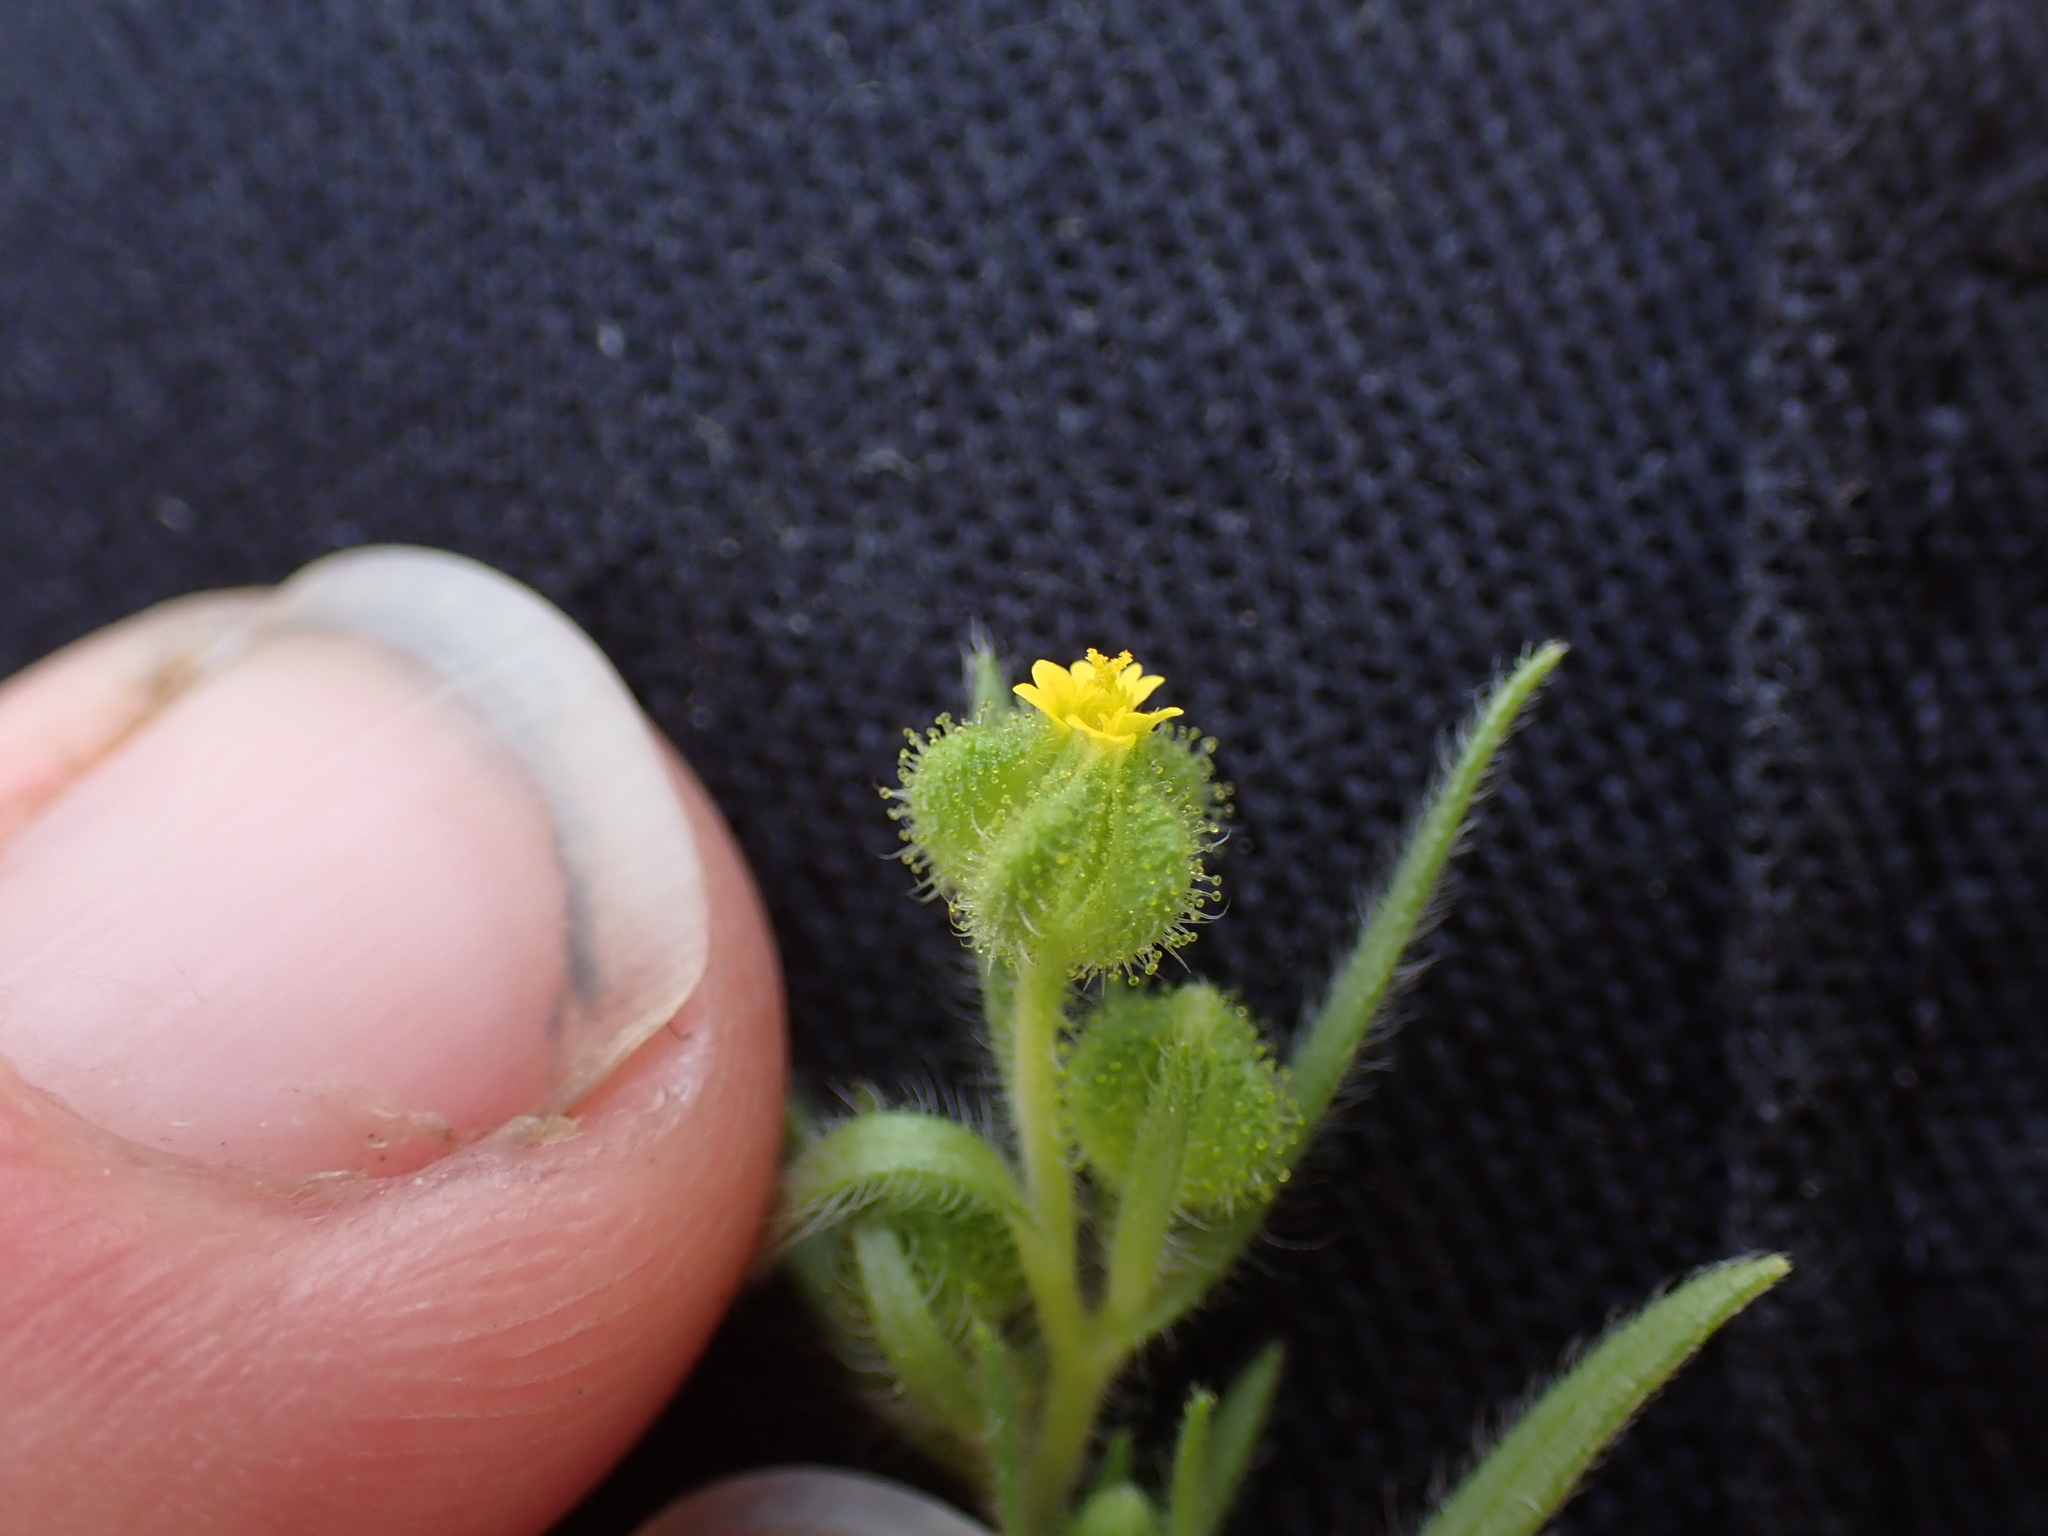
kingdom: Plantae
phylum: Tracheophyta
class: Magnoliopsida
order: Asterales
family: Asteraceae
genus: Madia
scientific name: Madia exigua
